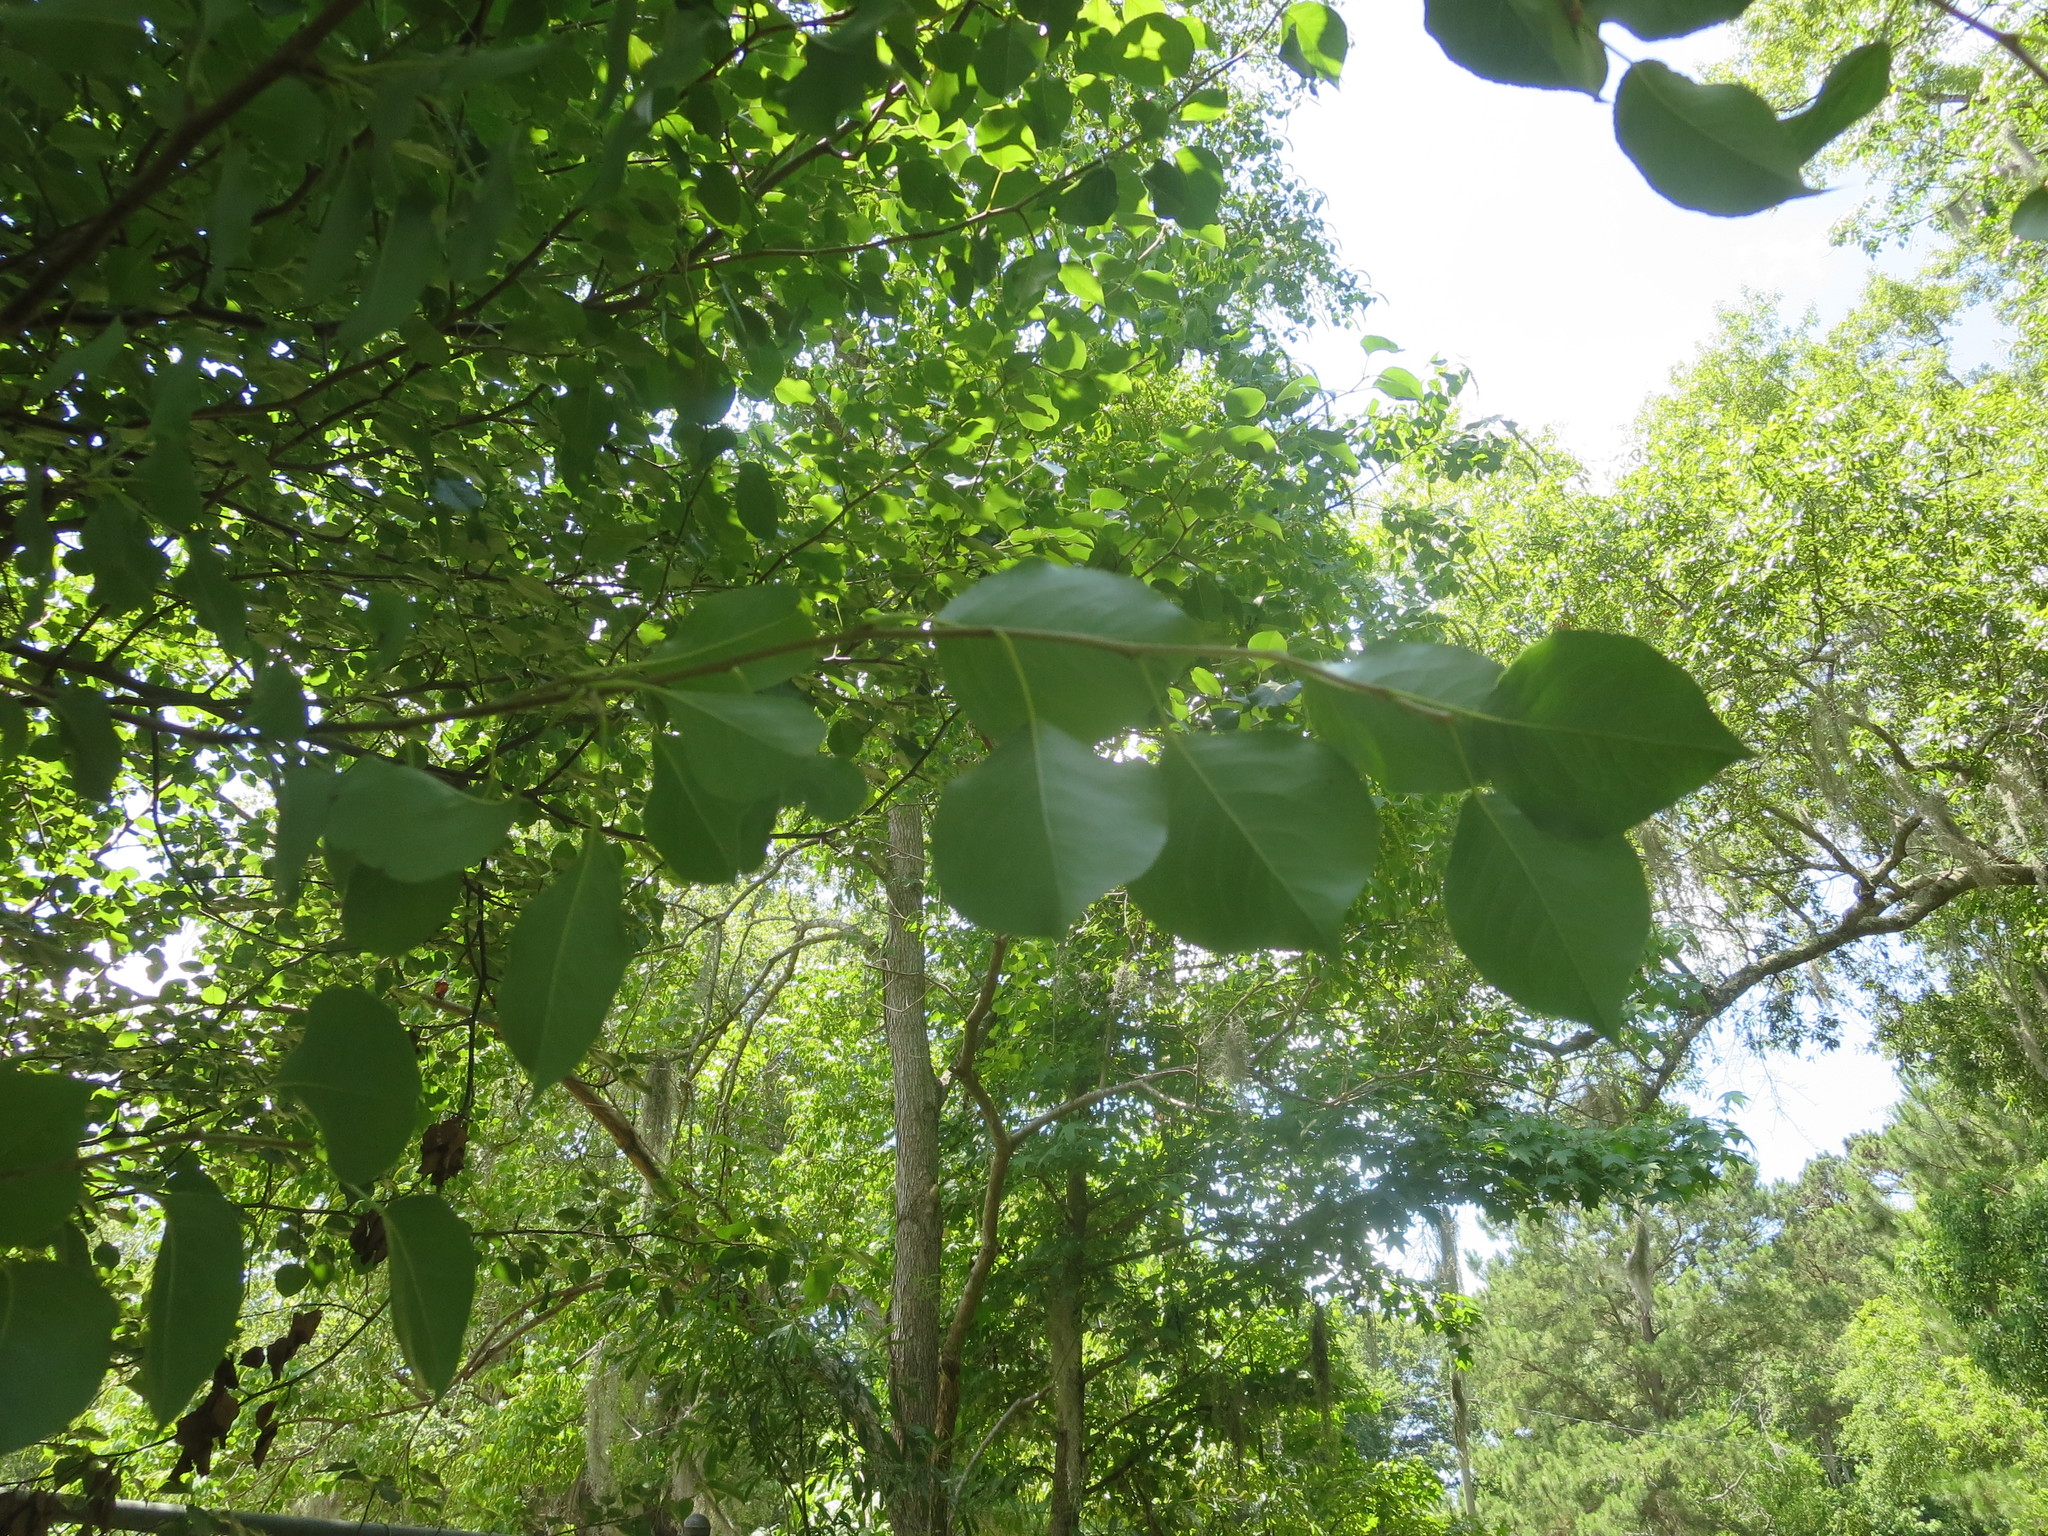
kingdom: Plantae
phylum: Tracheophyta
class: Magnoliopsida
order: Rosales
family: Rosaceae
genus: Pyrus
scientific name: Pyrus calleryana
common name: Callery pear
